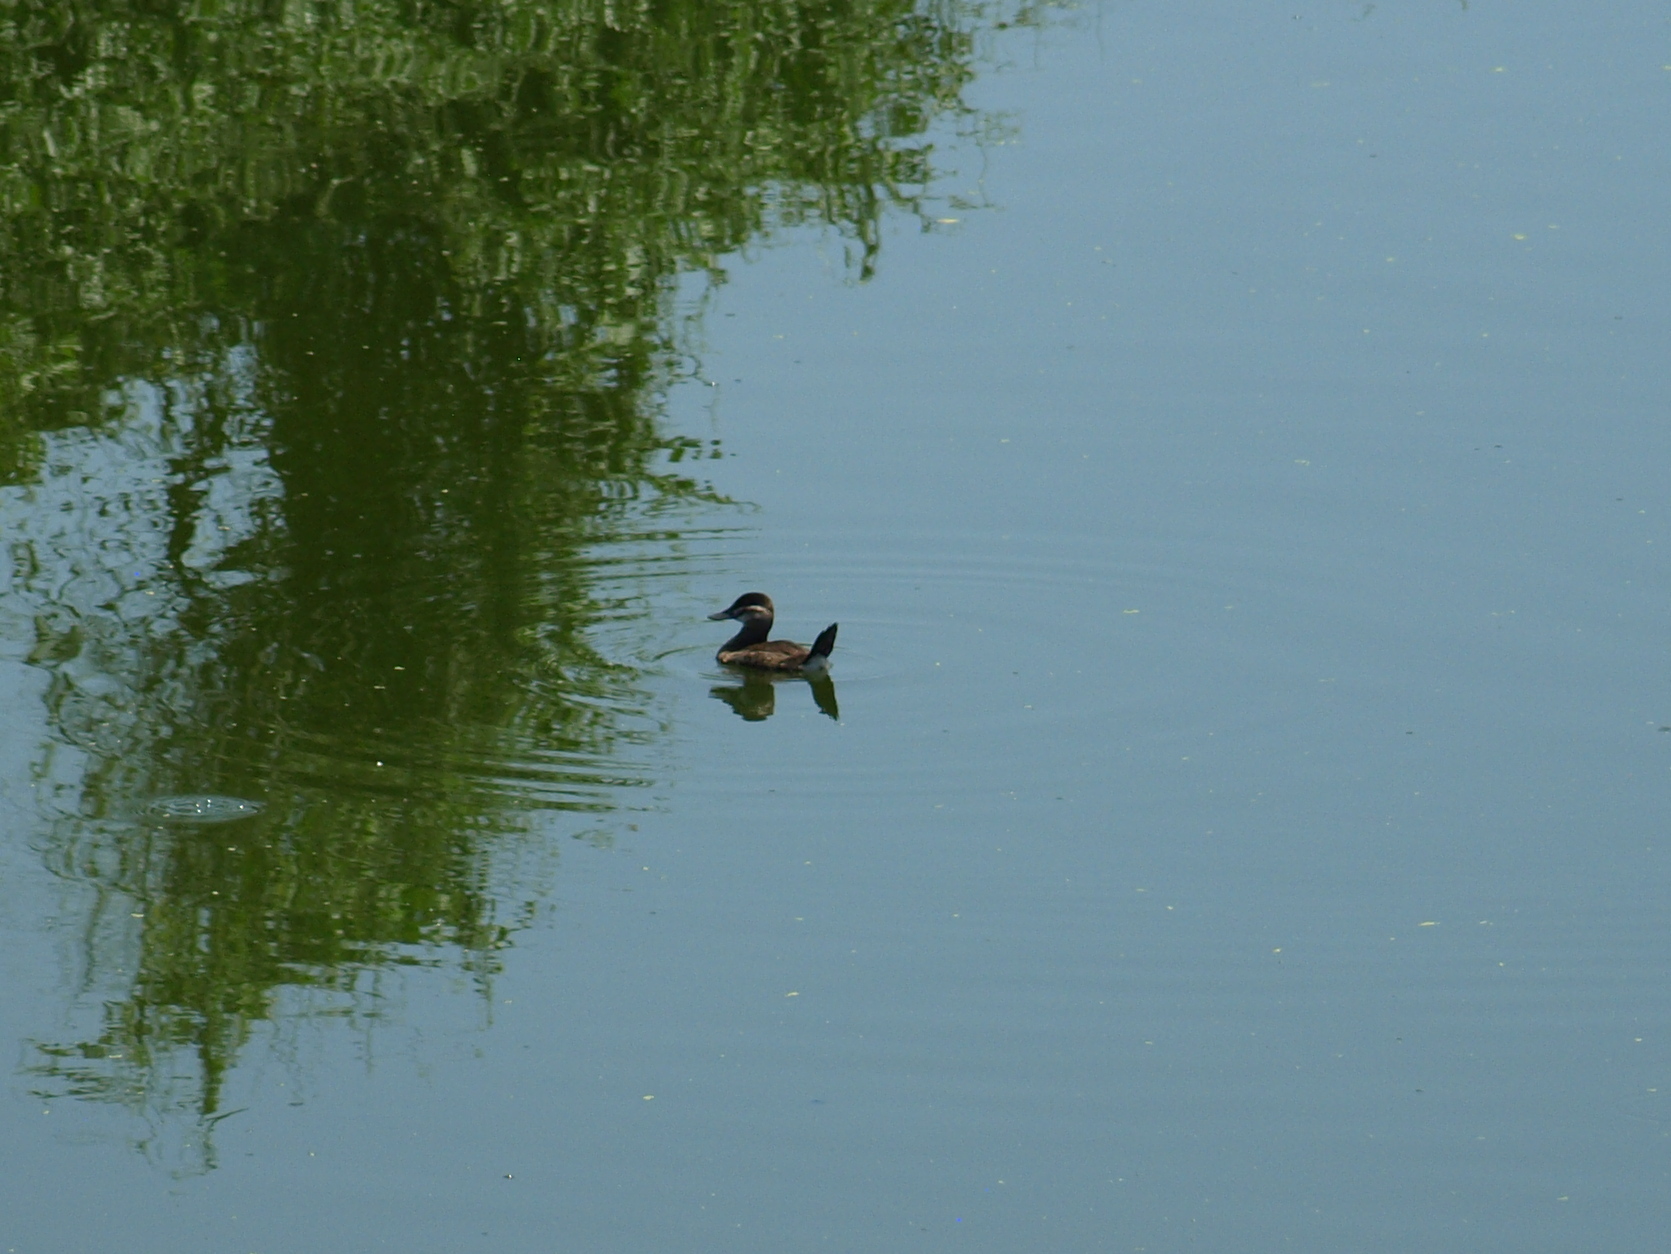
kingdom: Animalia
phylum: Chordata
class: Aves
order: Anseriformes
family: Anatidae
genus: Oxyura
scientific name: Oxyura jamaicensis
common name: Ruddy duck
